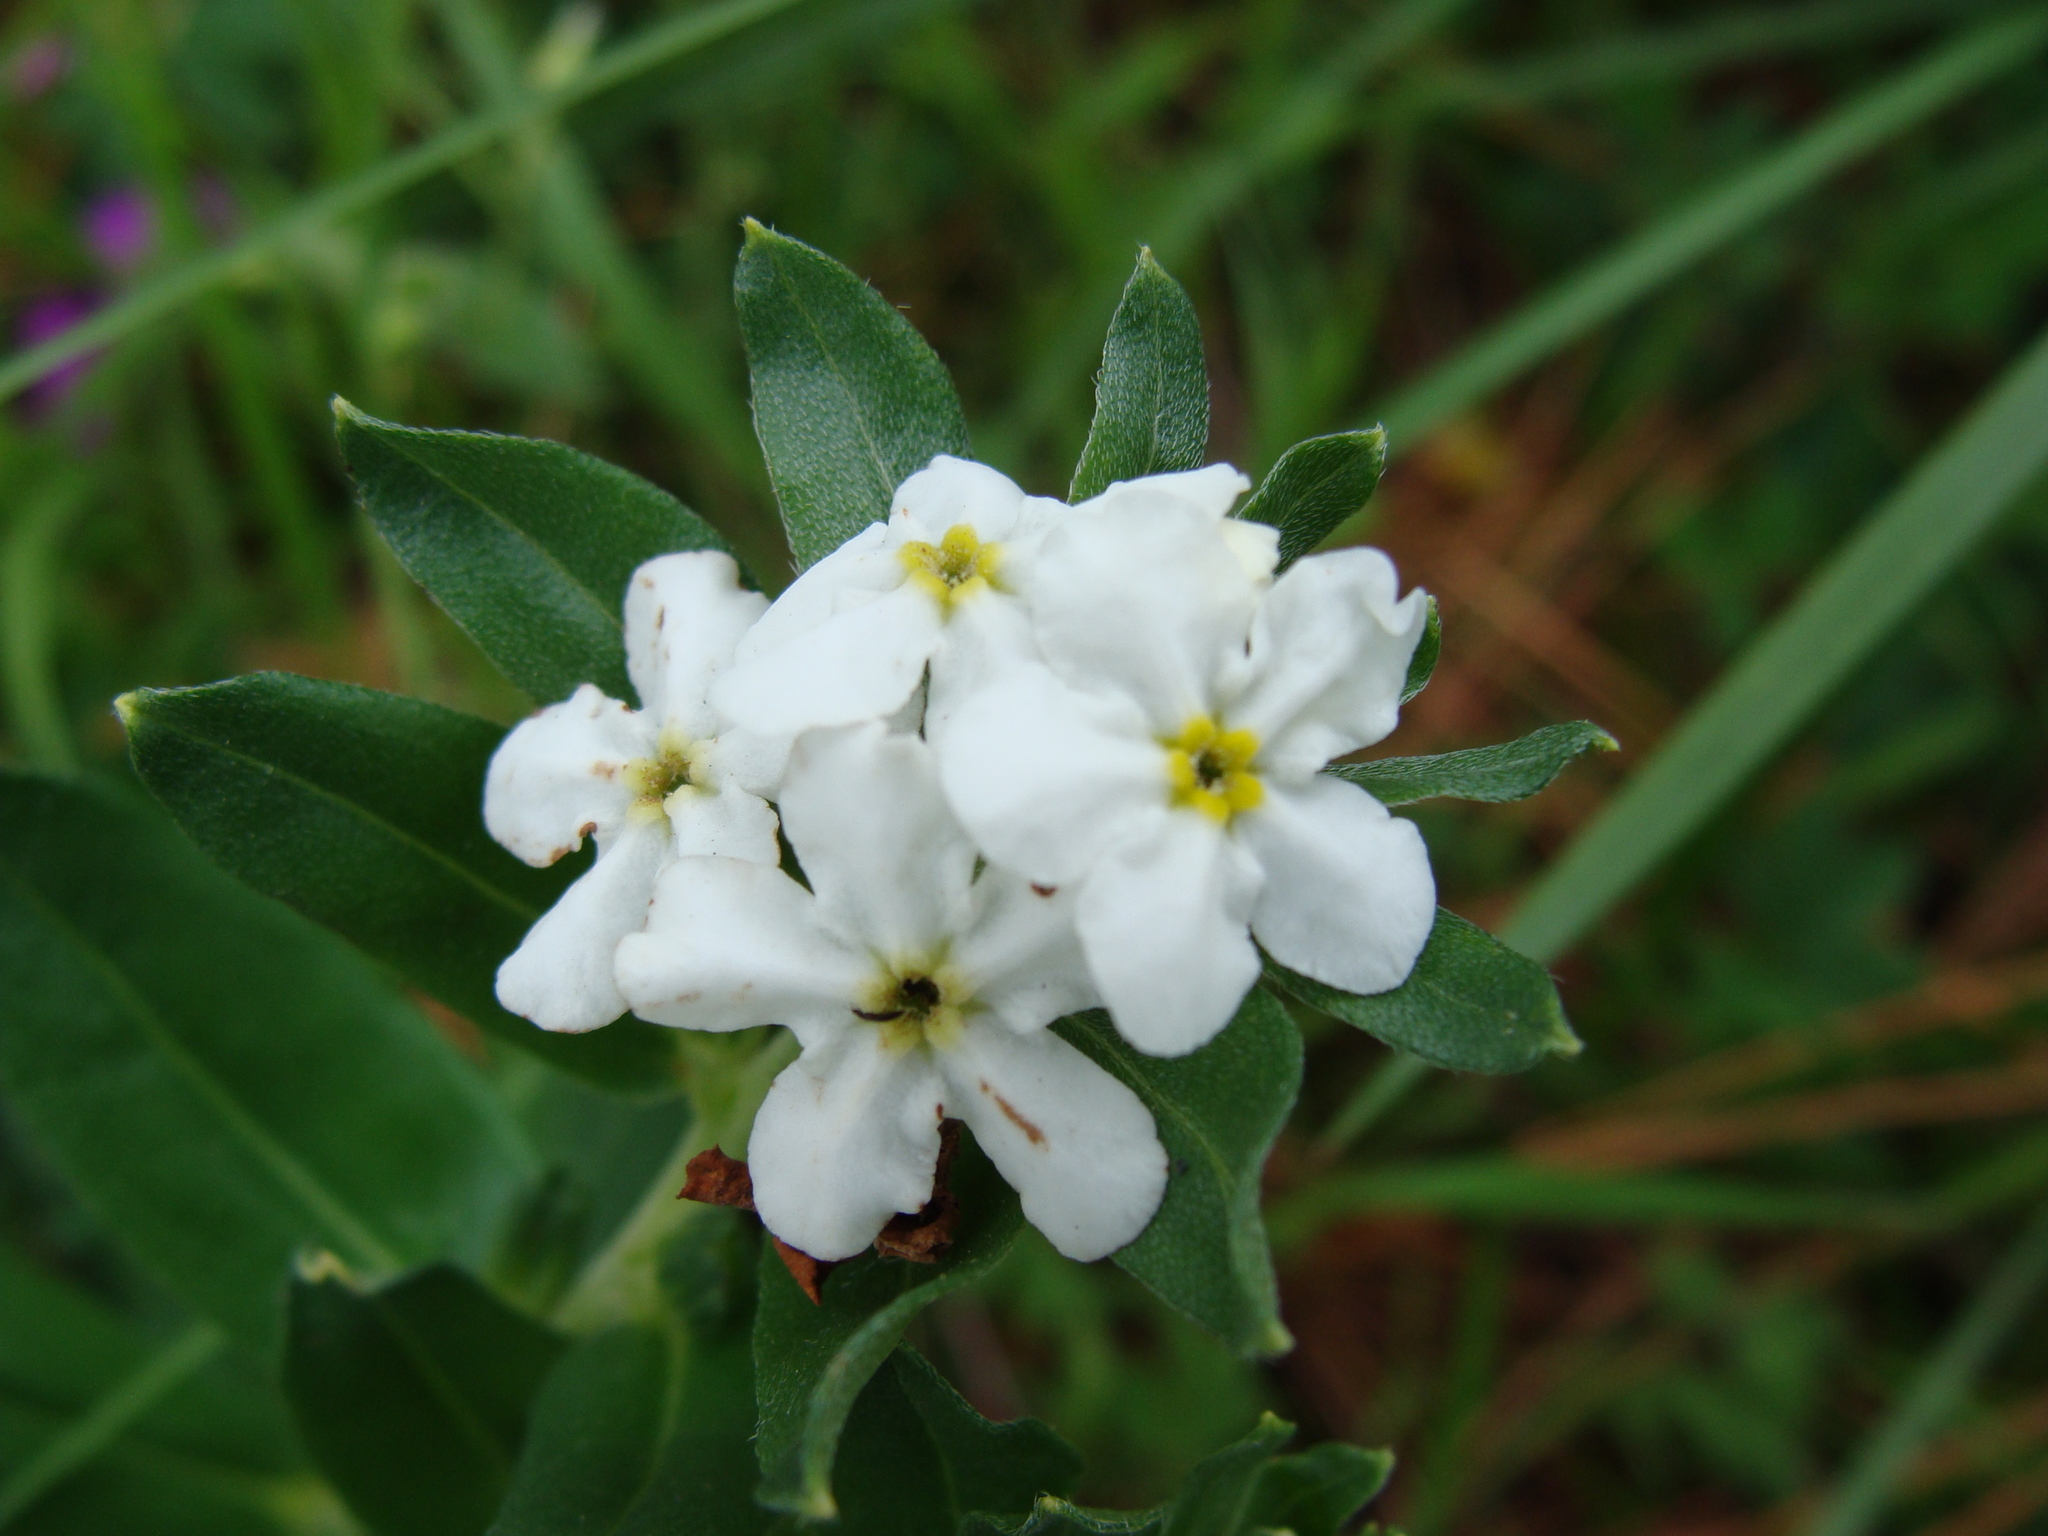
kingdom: Plantae
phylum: Tracheophyta
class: Magnoliopsida
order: Boraginales
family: Boraginaceae
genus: Lithospermum
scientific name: Lithospermum distichum
